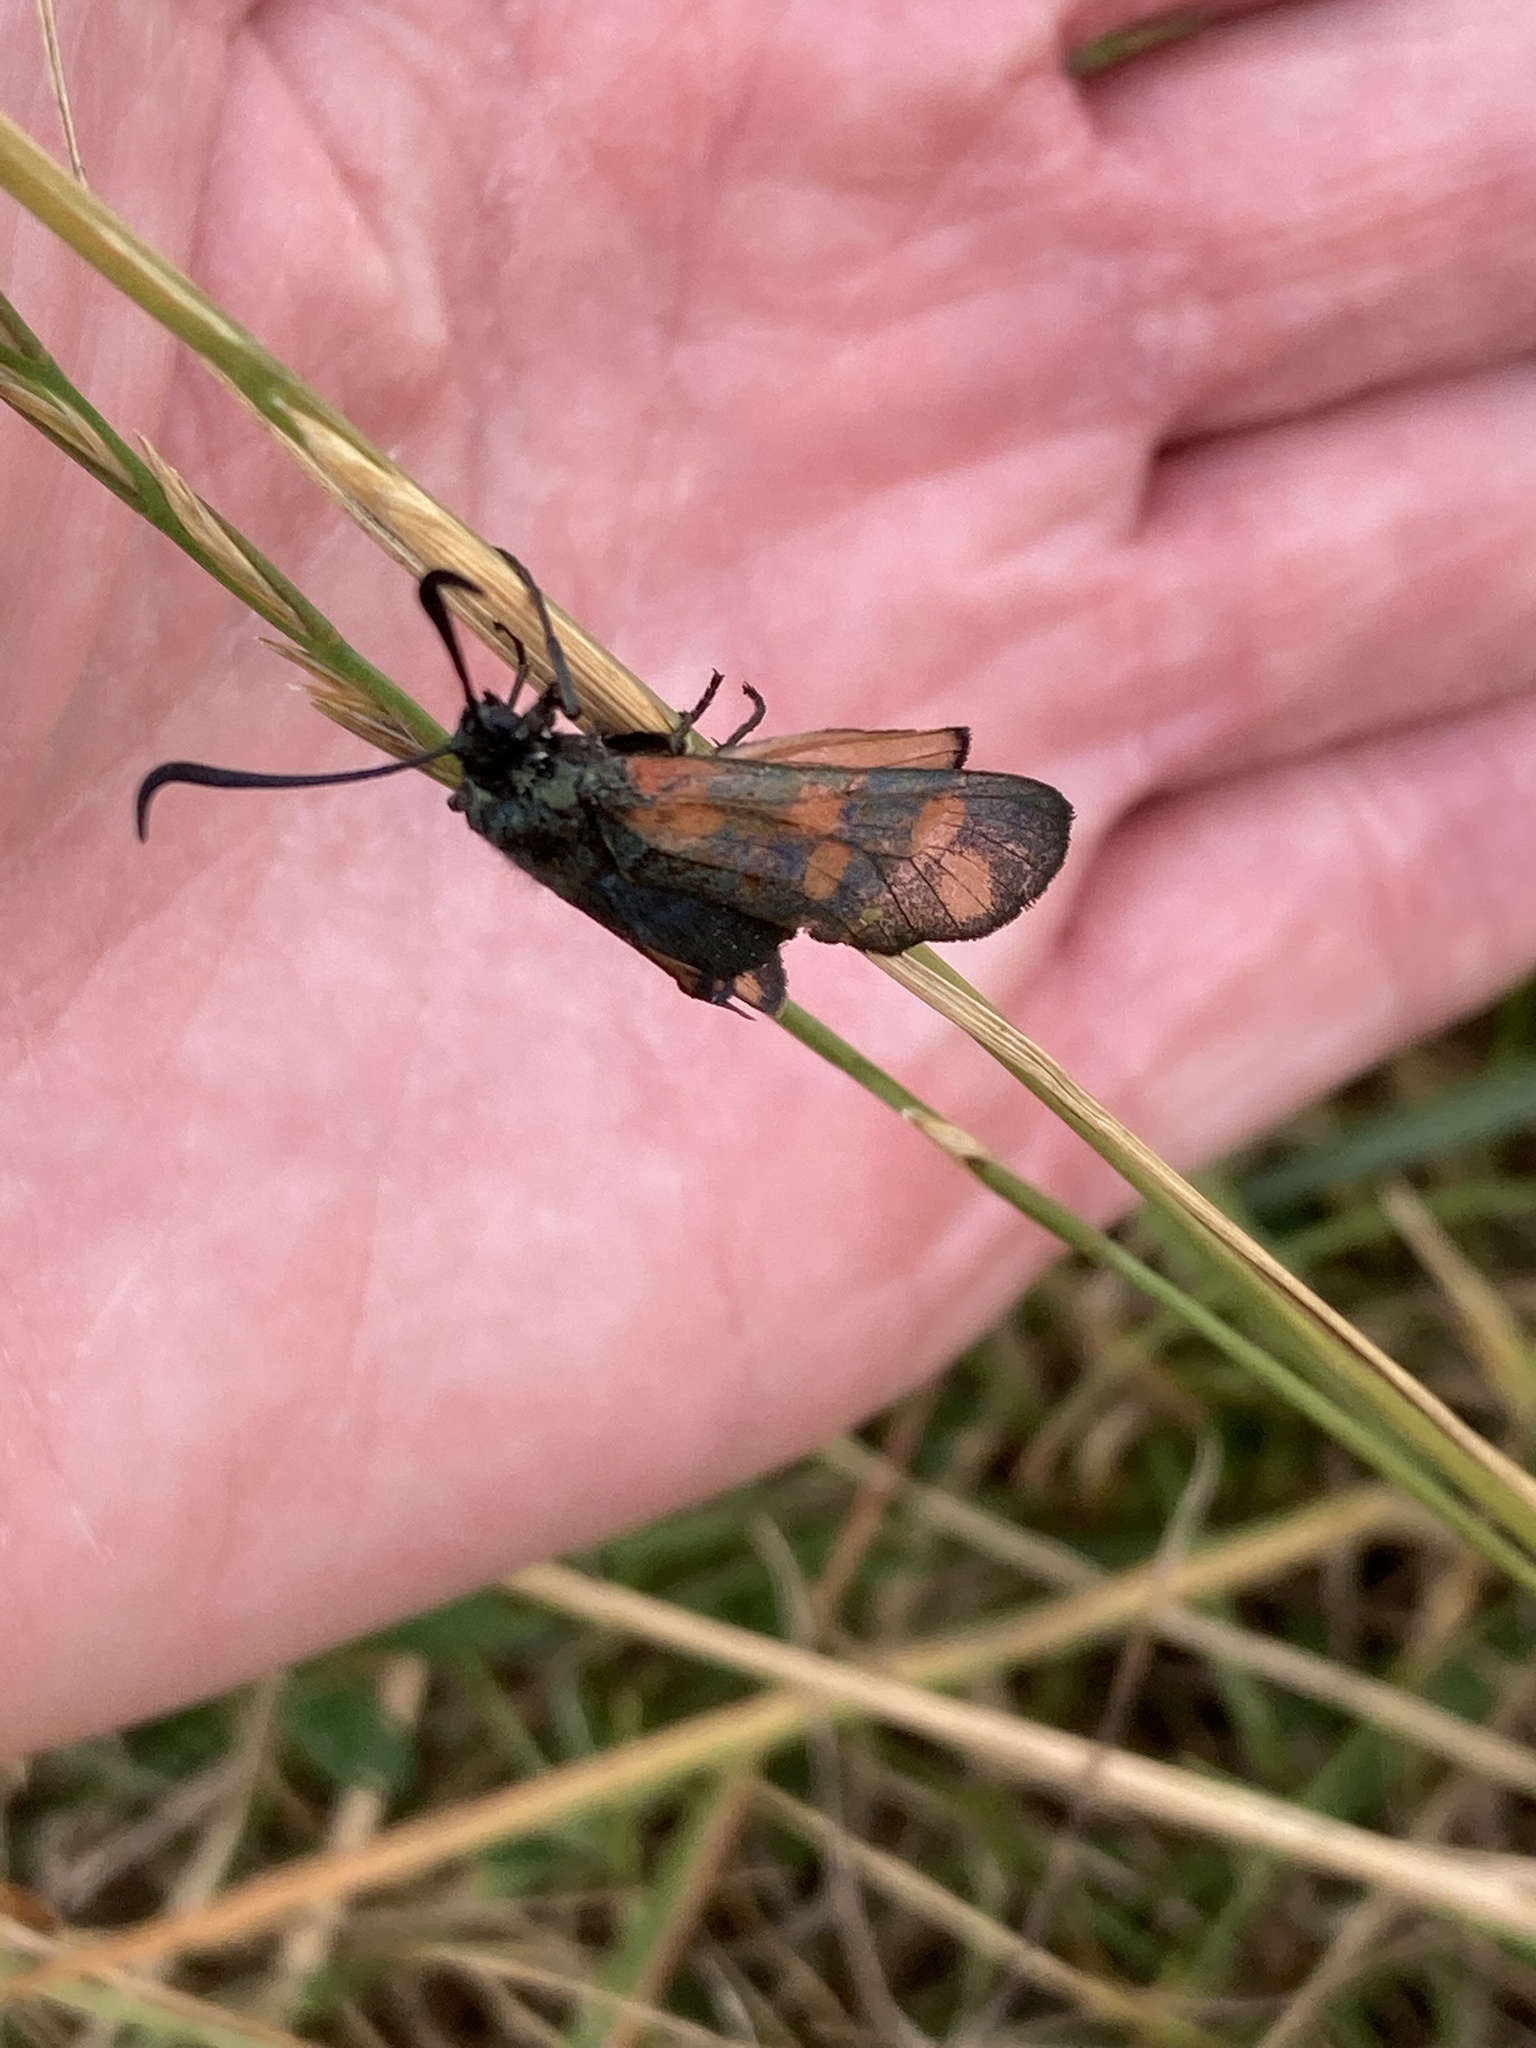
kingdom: Animalia
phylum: Arthropoda
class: Insecta
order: Lepidoptera
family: Zygaenidae
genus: Zygaena
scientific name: Zygaena filipendulae
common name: Six-spot burnet
